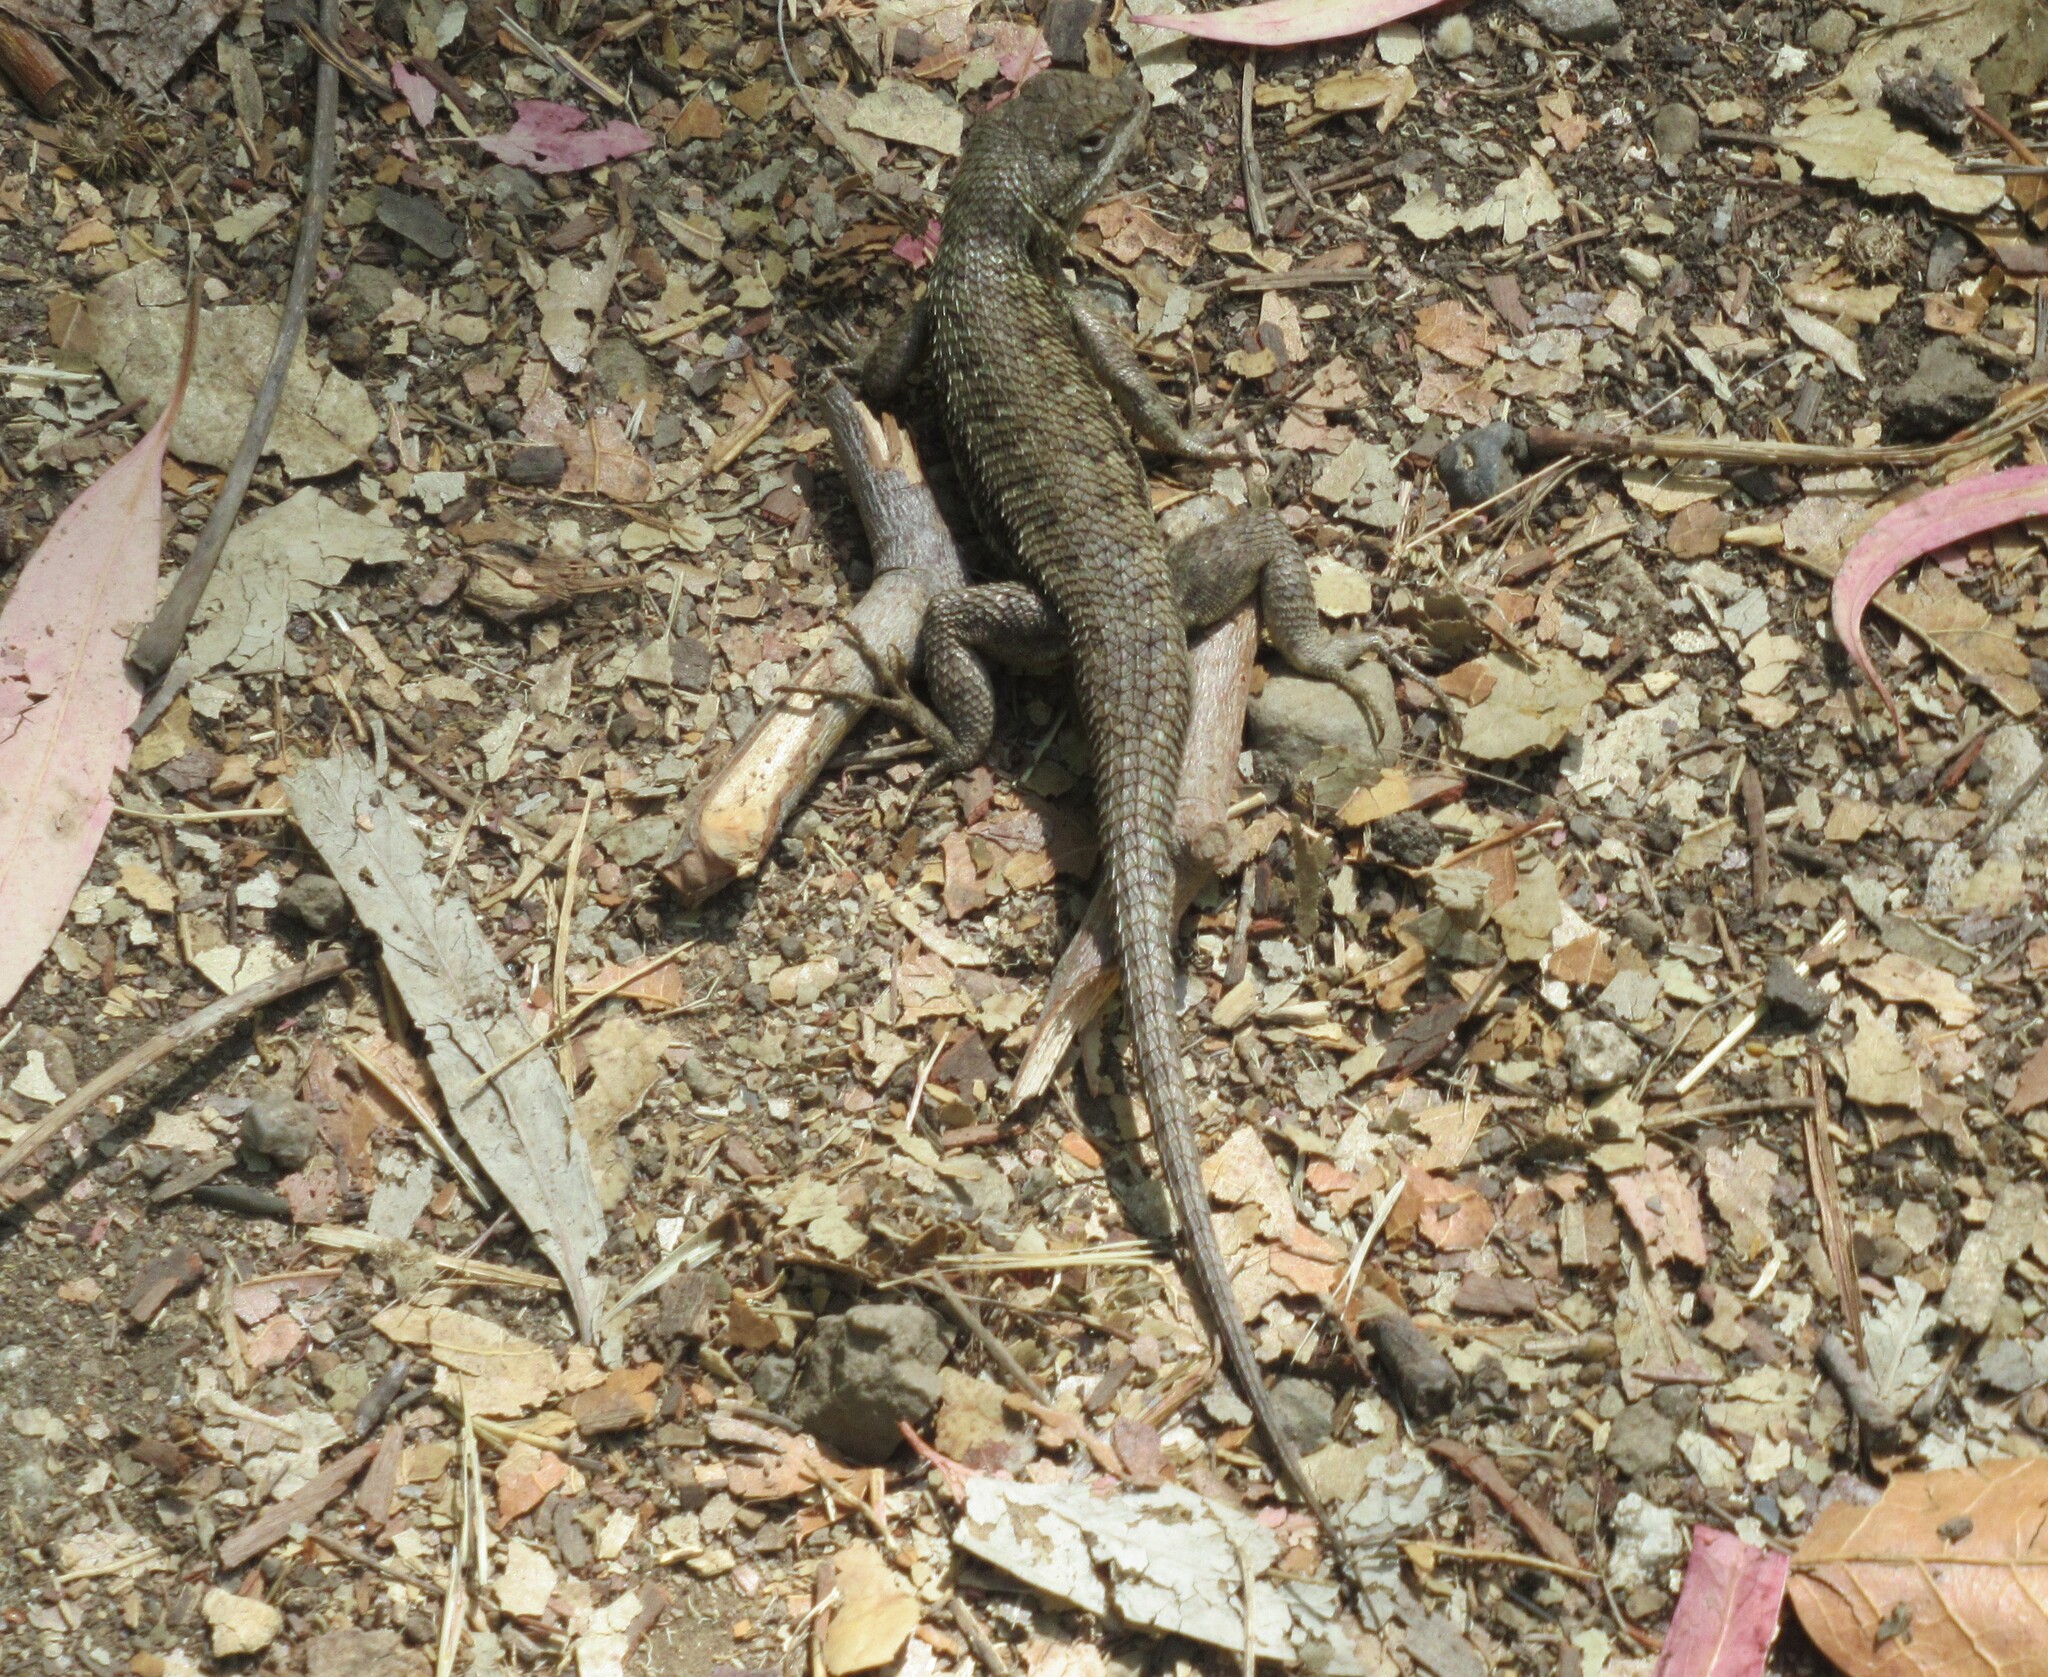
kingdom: Animalia
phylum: Chordata
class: Squamata
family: Phrynosomatidae
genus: Sceloporus
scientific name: Sceloporus occidentalis
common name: Western fence lizard
